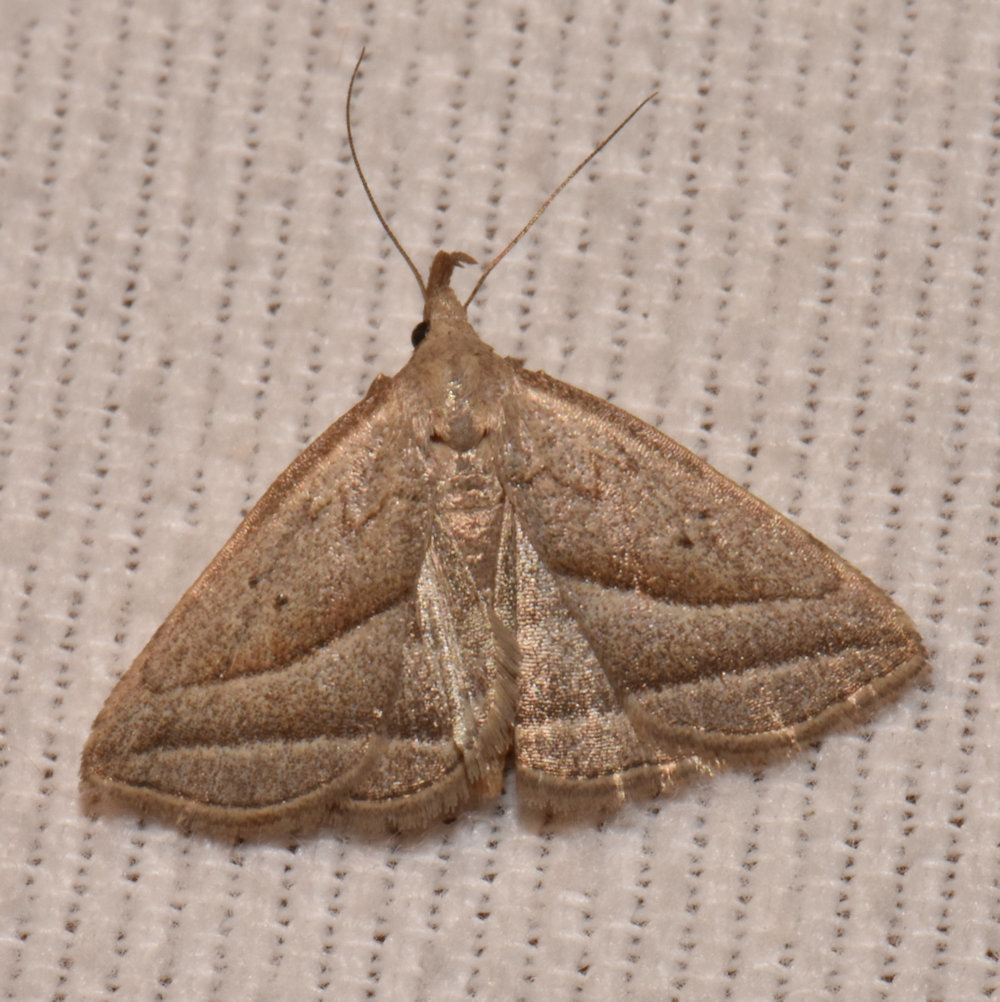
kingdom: Animalia
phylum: Arthropoda
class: Insecta
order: Lepidoptera
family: Erebidae
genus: Macrochilo
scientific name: Macrochilo absorptalis
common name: Slant-lined owlet
